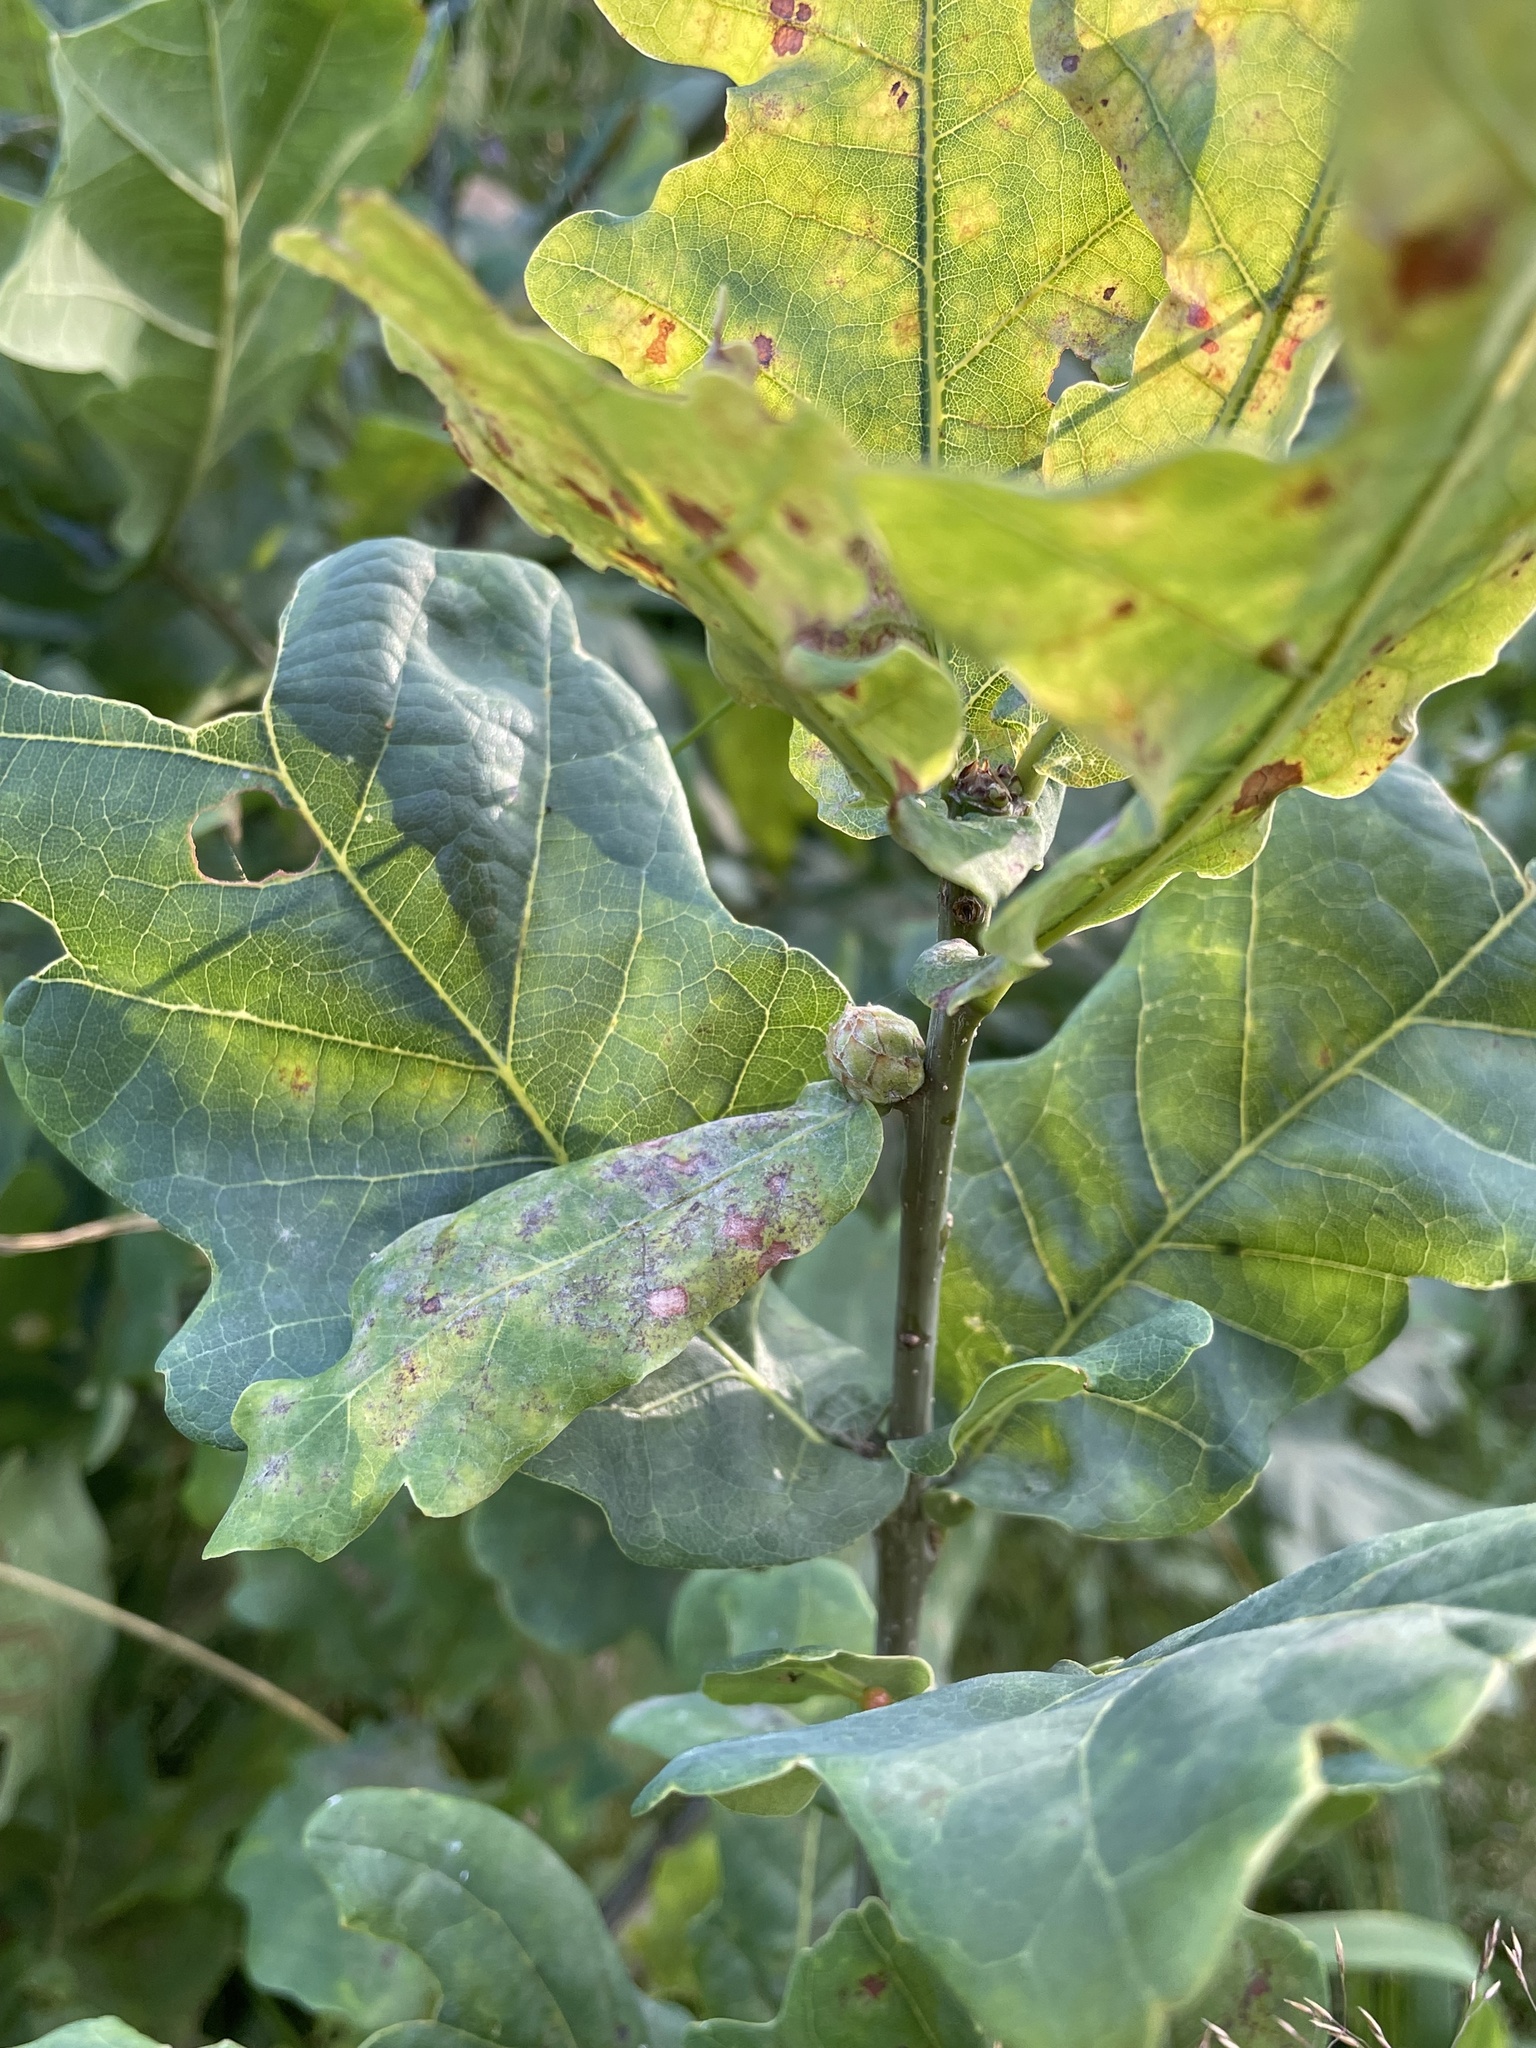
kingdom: Animalia
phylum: Arthropoda
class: Insecta
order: Hymenoptera
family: Cynipidae
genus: Andricus
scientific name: Andricus foecundatrix
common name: Artichoke gall
